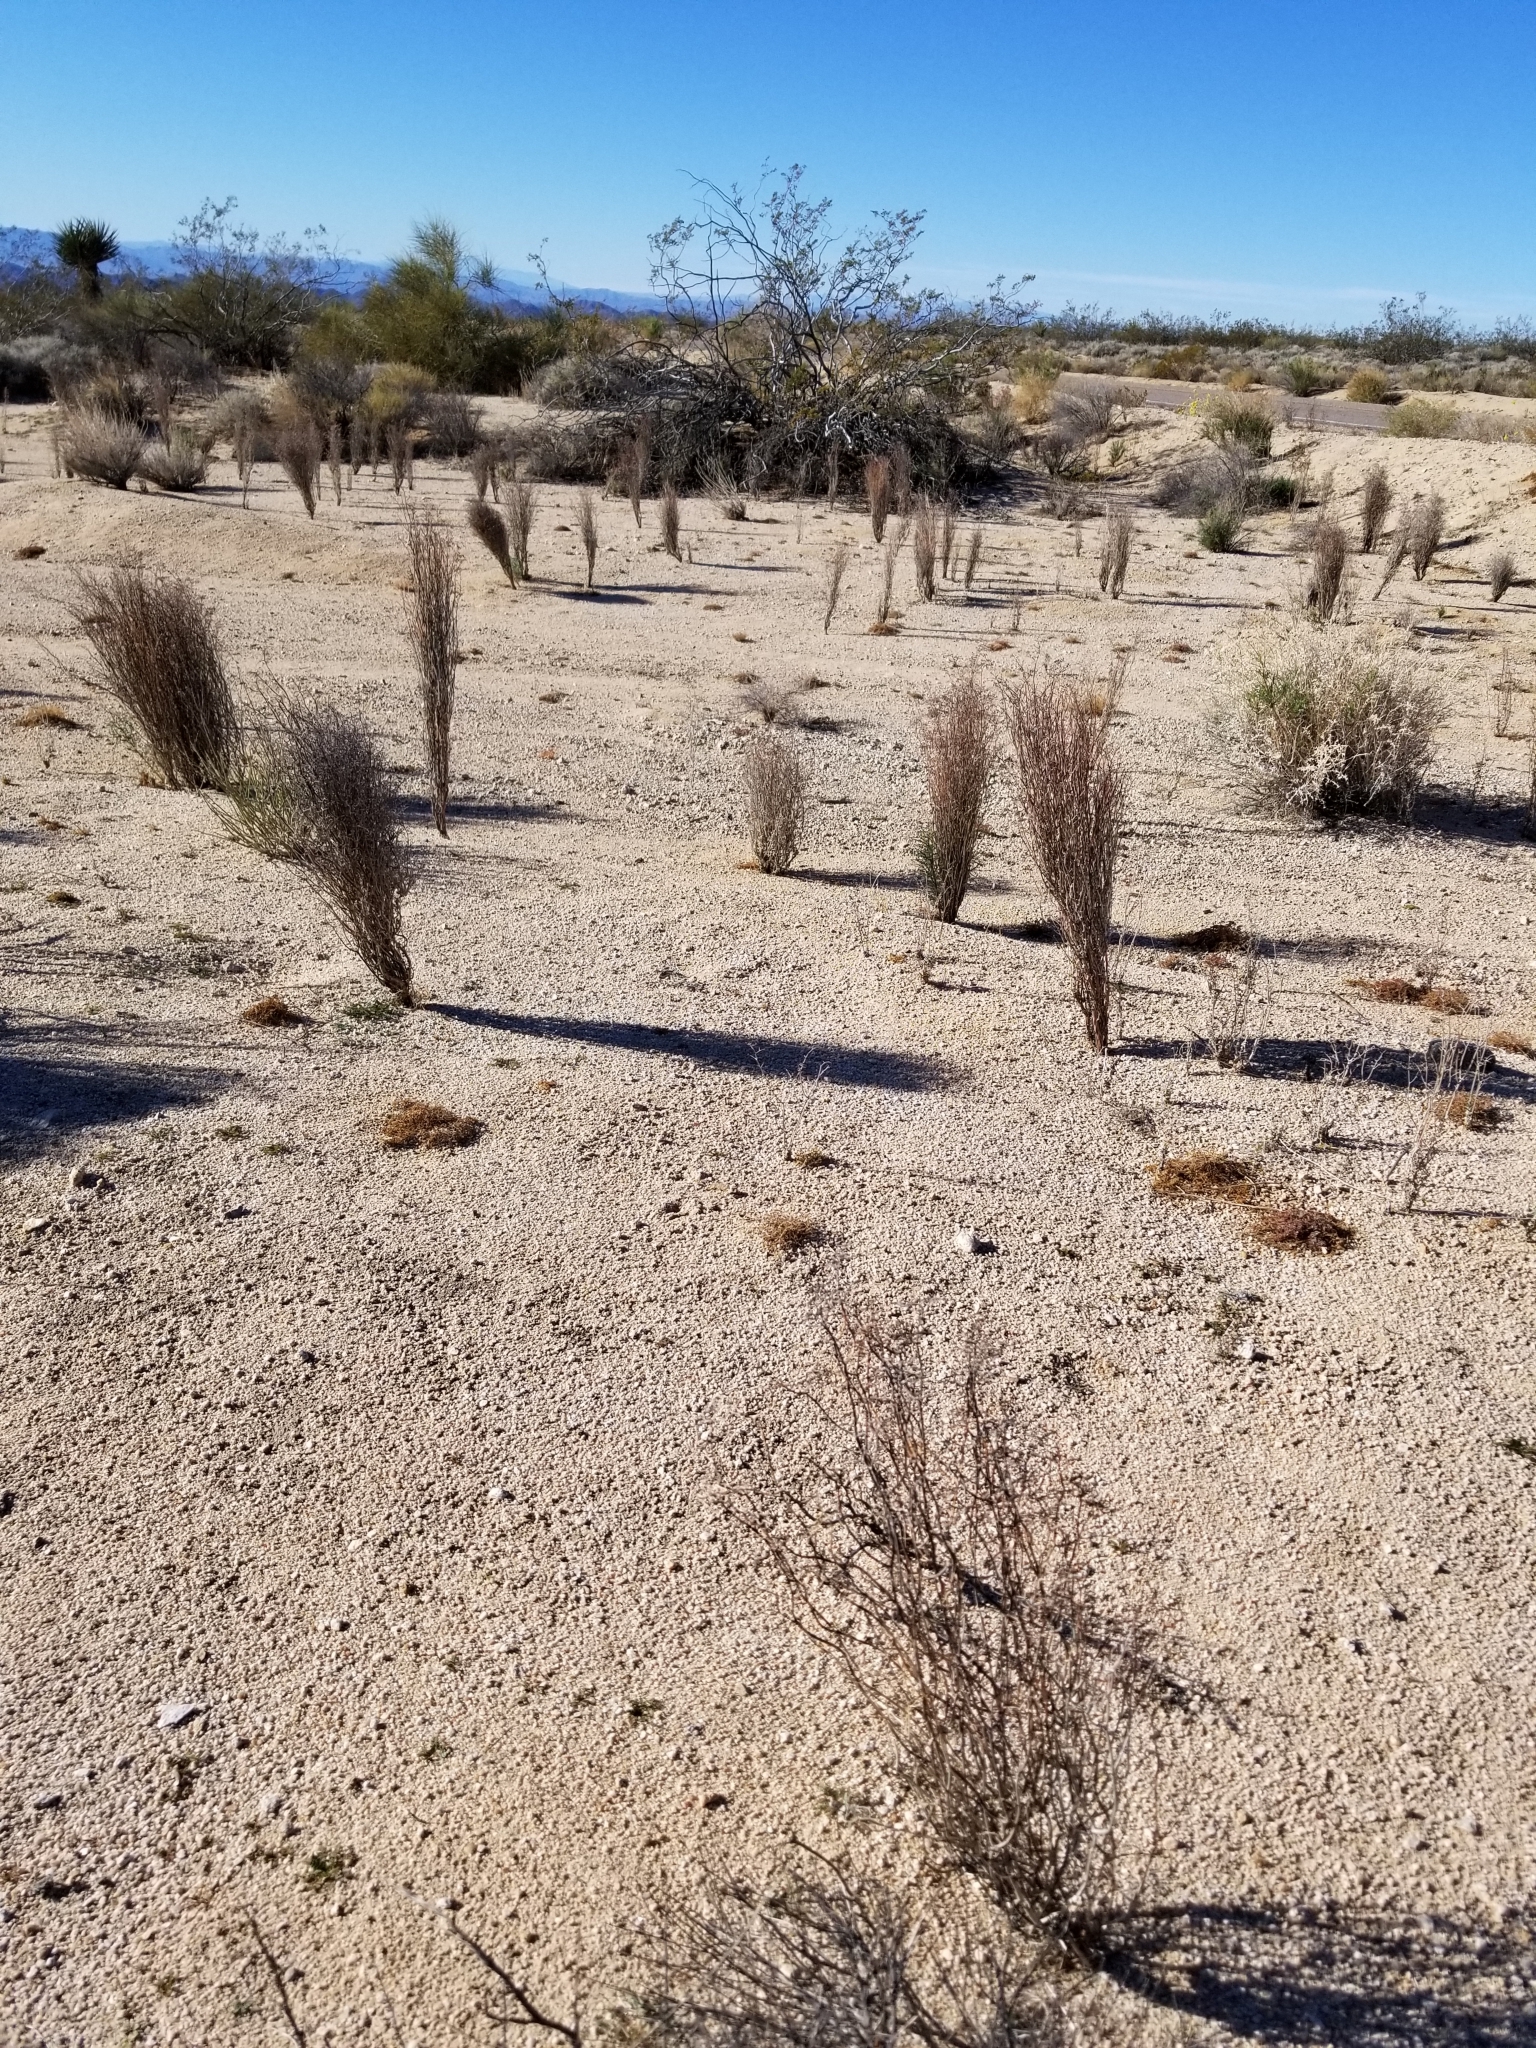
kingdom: Plantae
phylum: Tracheophyta
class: Magnoliopsida
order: Caryophyllales
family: Polygonaceae
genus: Eriogonum
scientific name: Eriogonum plumatella
